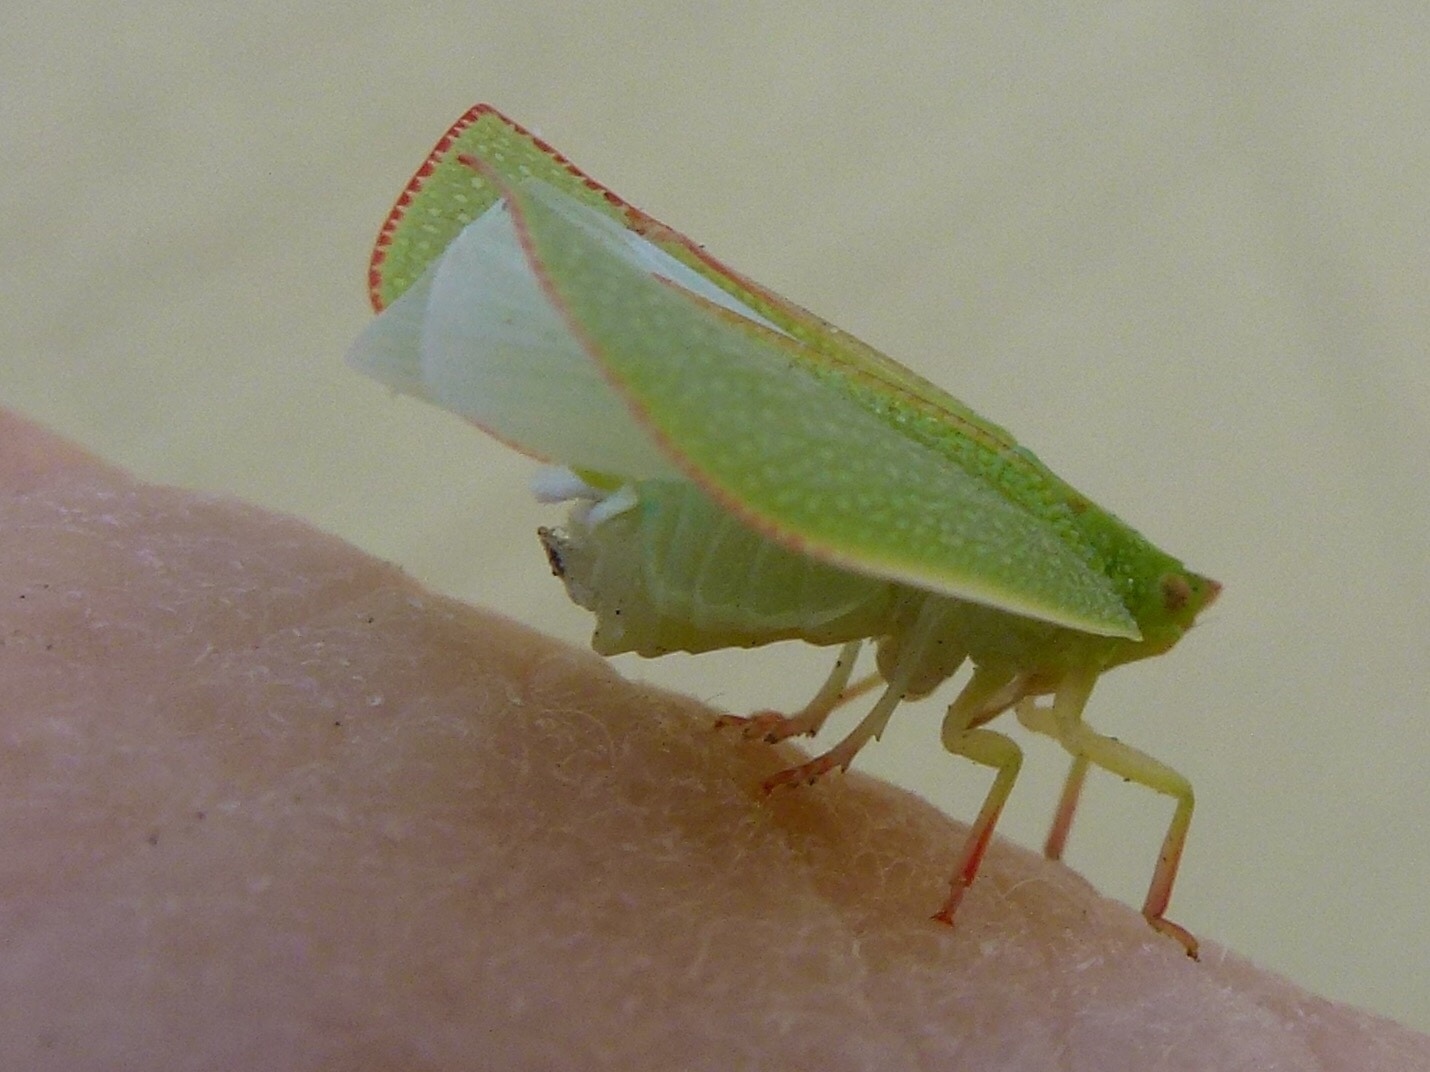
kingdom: Animalia
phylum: Arthropoda
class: Insecta
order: Hemiptera
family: Flatidae
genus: Siphanta
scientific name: Siphanta acuta
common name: Torpedo bug
